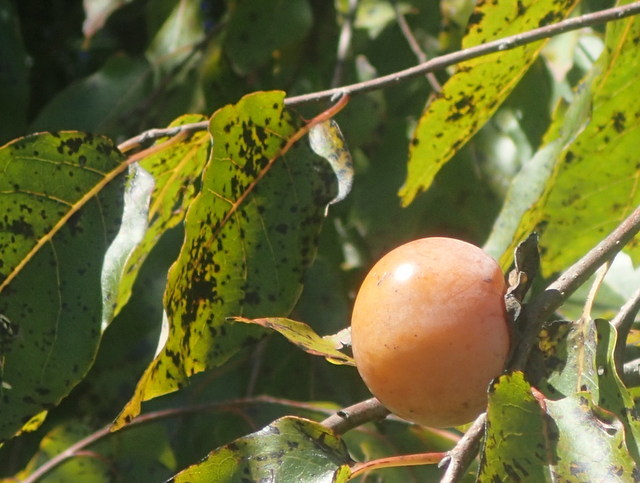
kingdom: Plantae
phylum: Tracheophyta
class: Magnoliopsida
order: Ericales
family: Ebenaceae
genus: Diospyros
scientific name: Diospyros virginiana
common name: Persimmon
